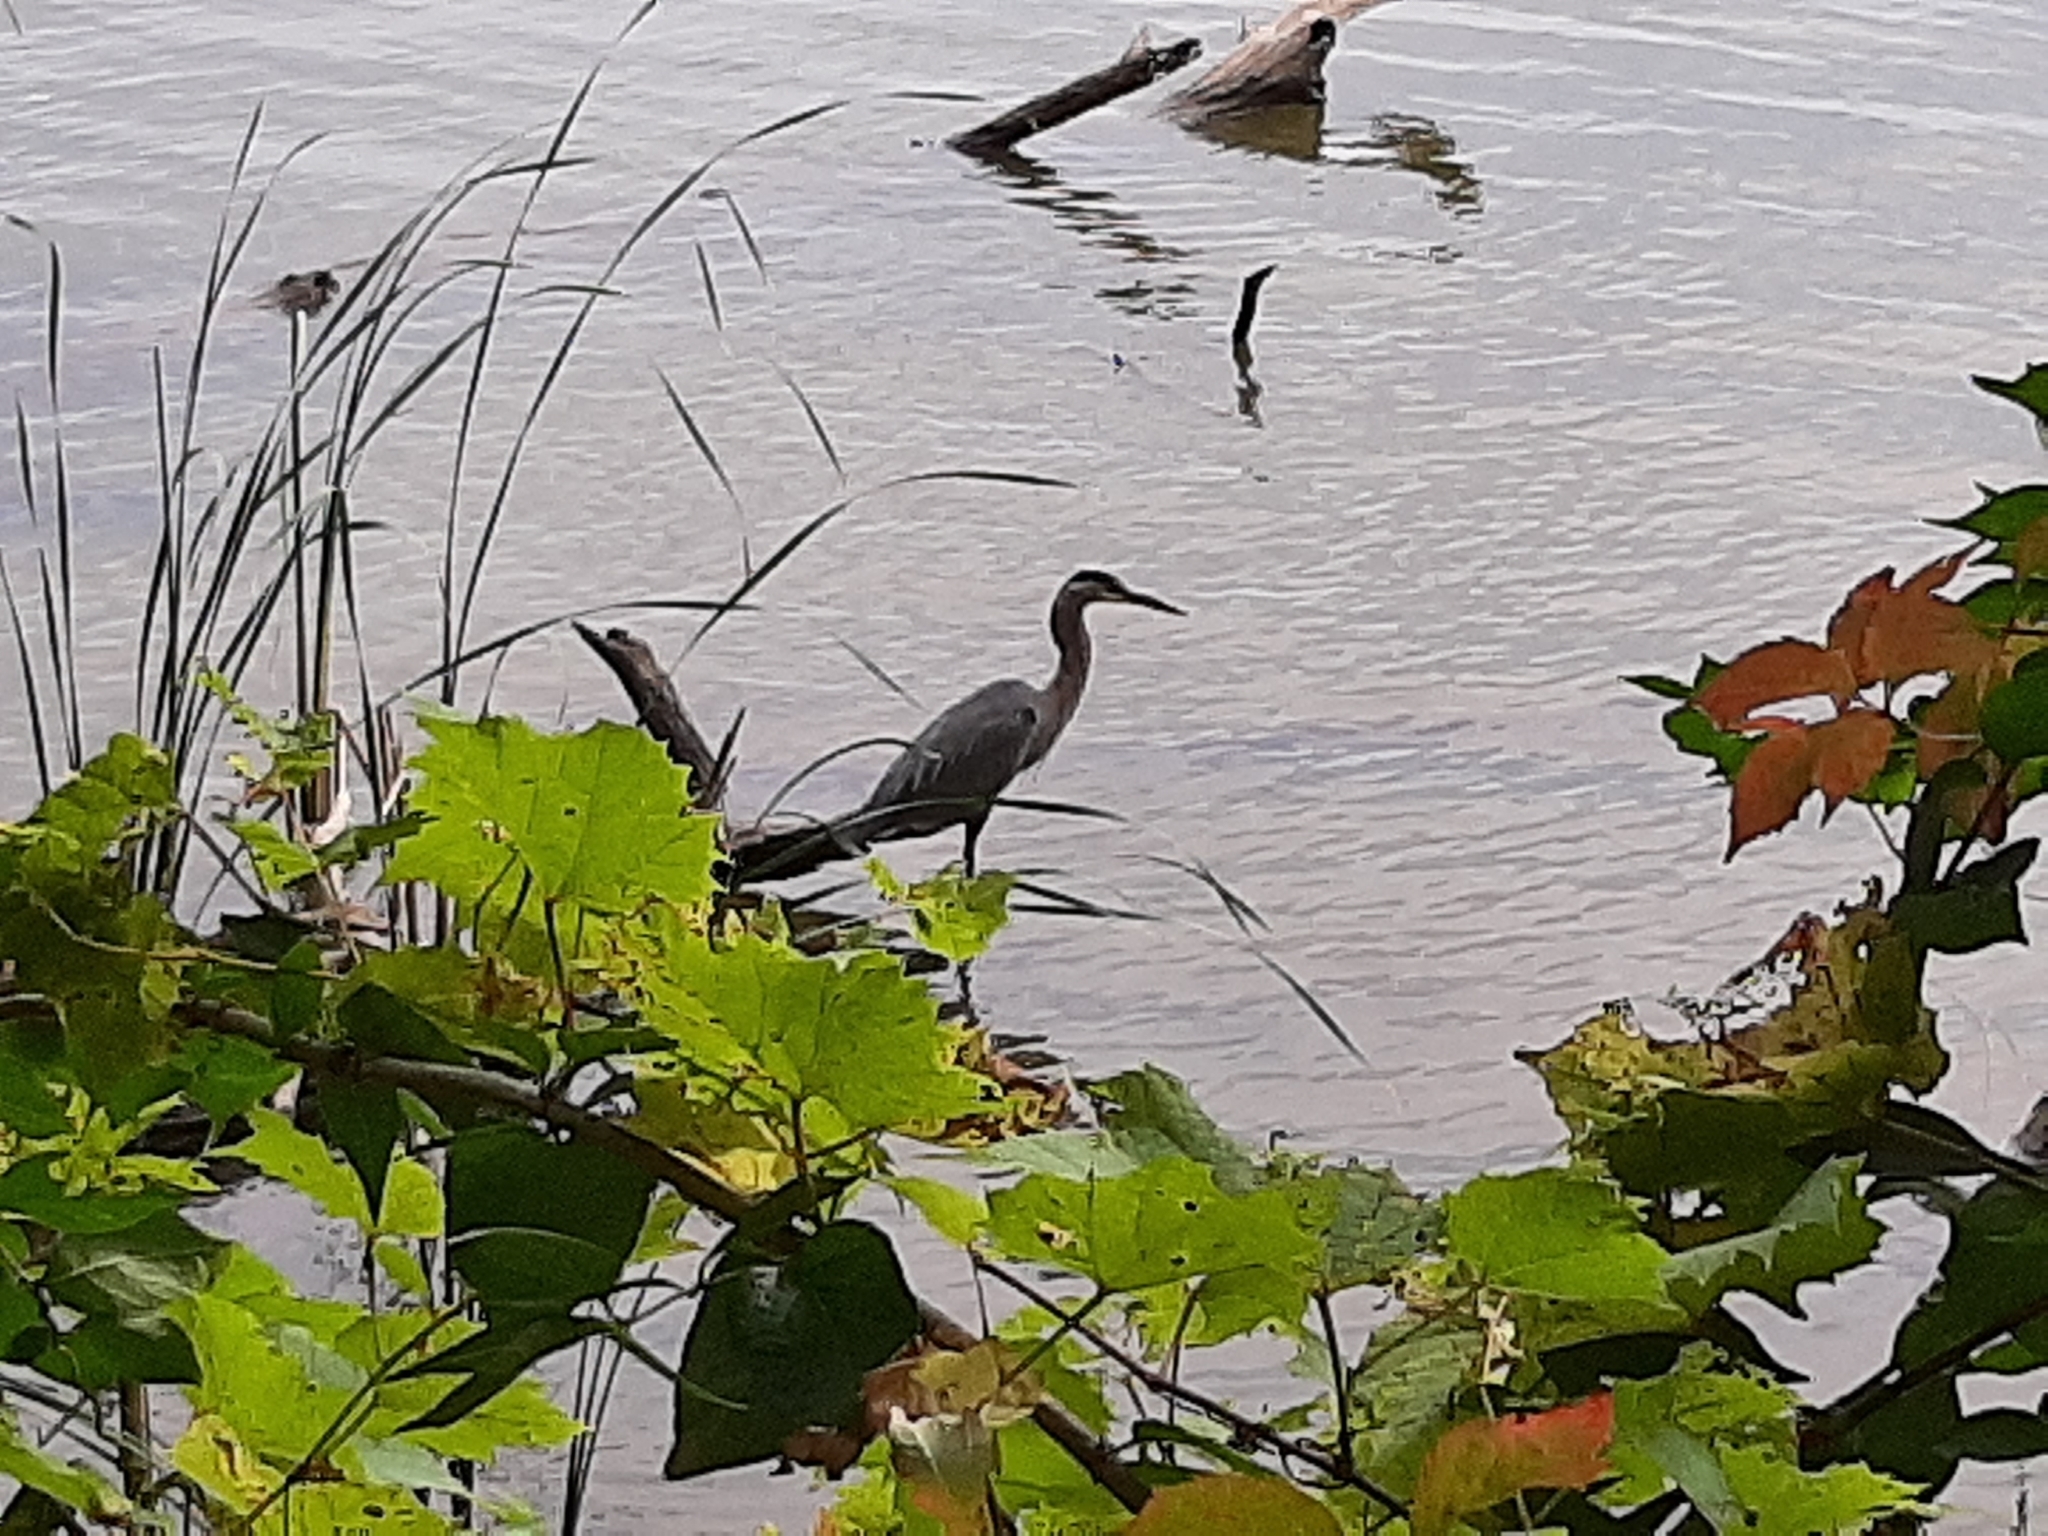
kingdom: Animalia
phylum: Chordata
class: Aves
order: Pelecaniformes
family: Ardeidae
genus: Ardea
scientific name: Ardea herodias
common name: Great blue heron
